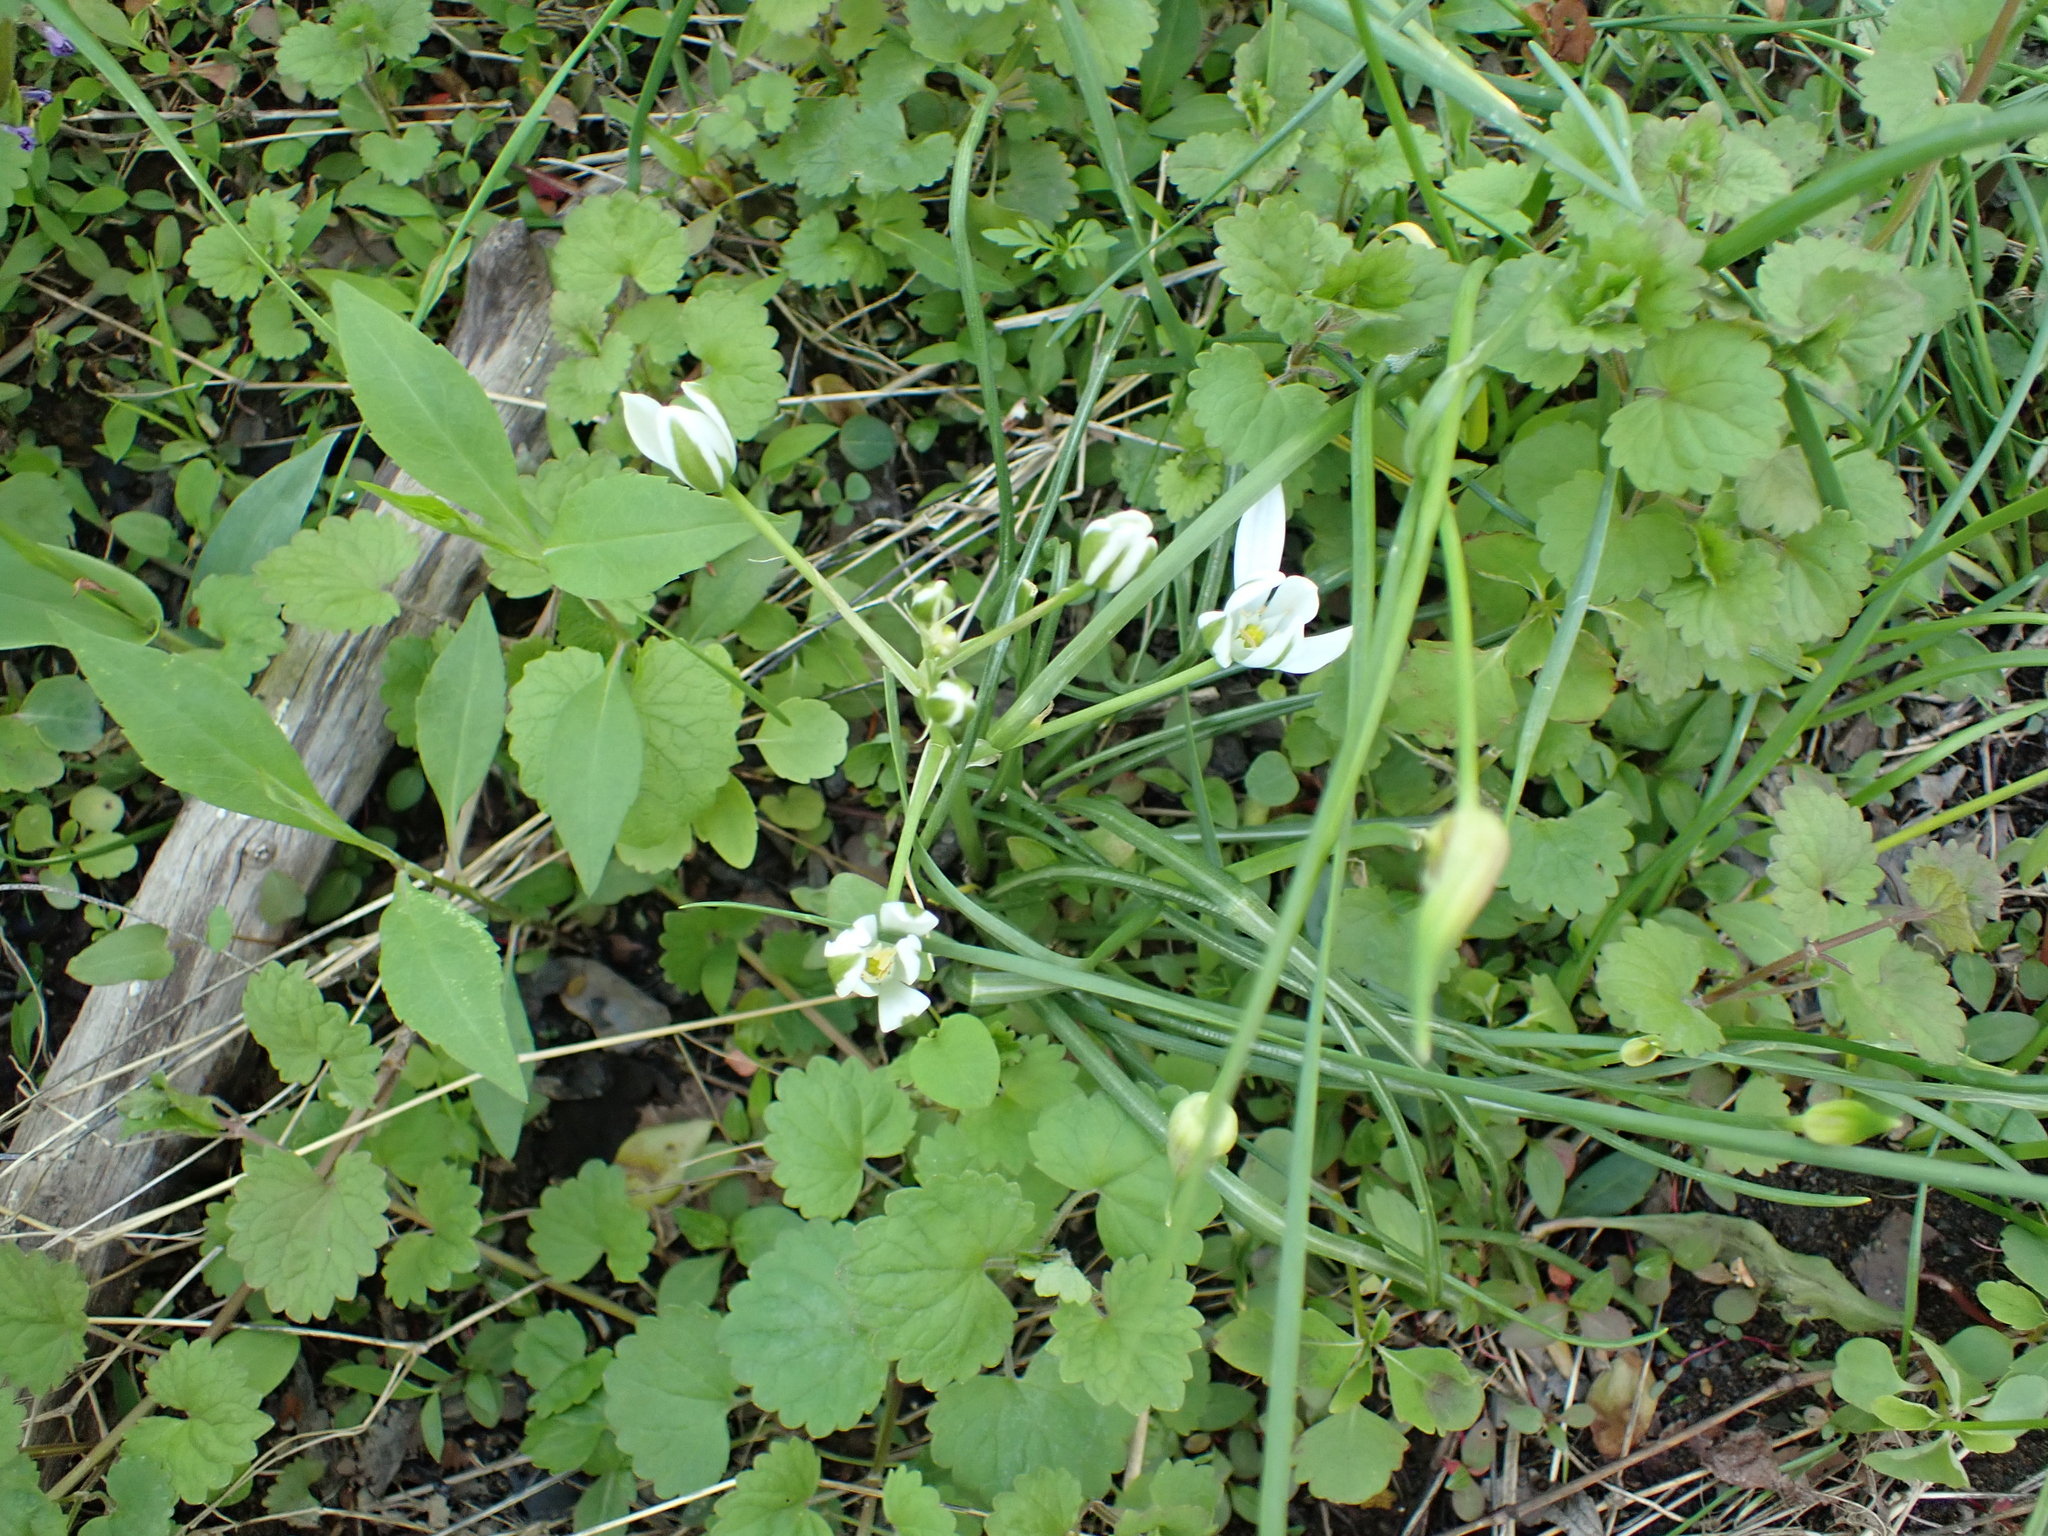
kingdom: Plantae
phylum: Tracheophyta
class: Liliopsida
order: Asparagales
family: Asparagaceae
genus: Ornithogalum
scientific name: Ornithogalum umbellatum
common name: Garden star-of-bethlehem
